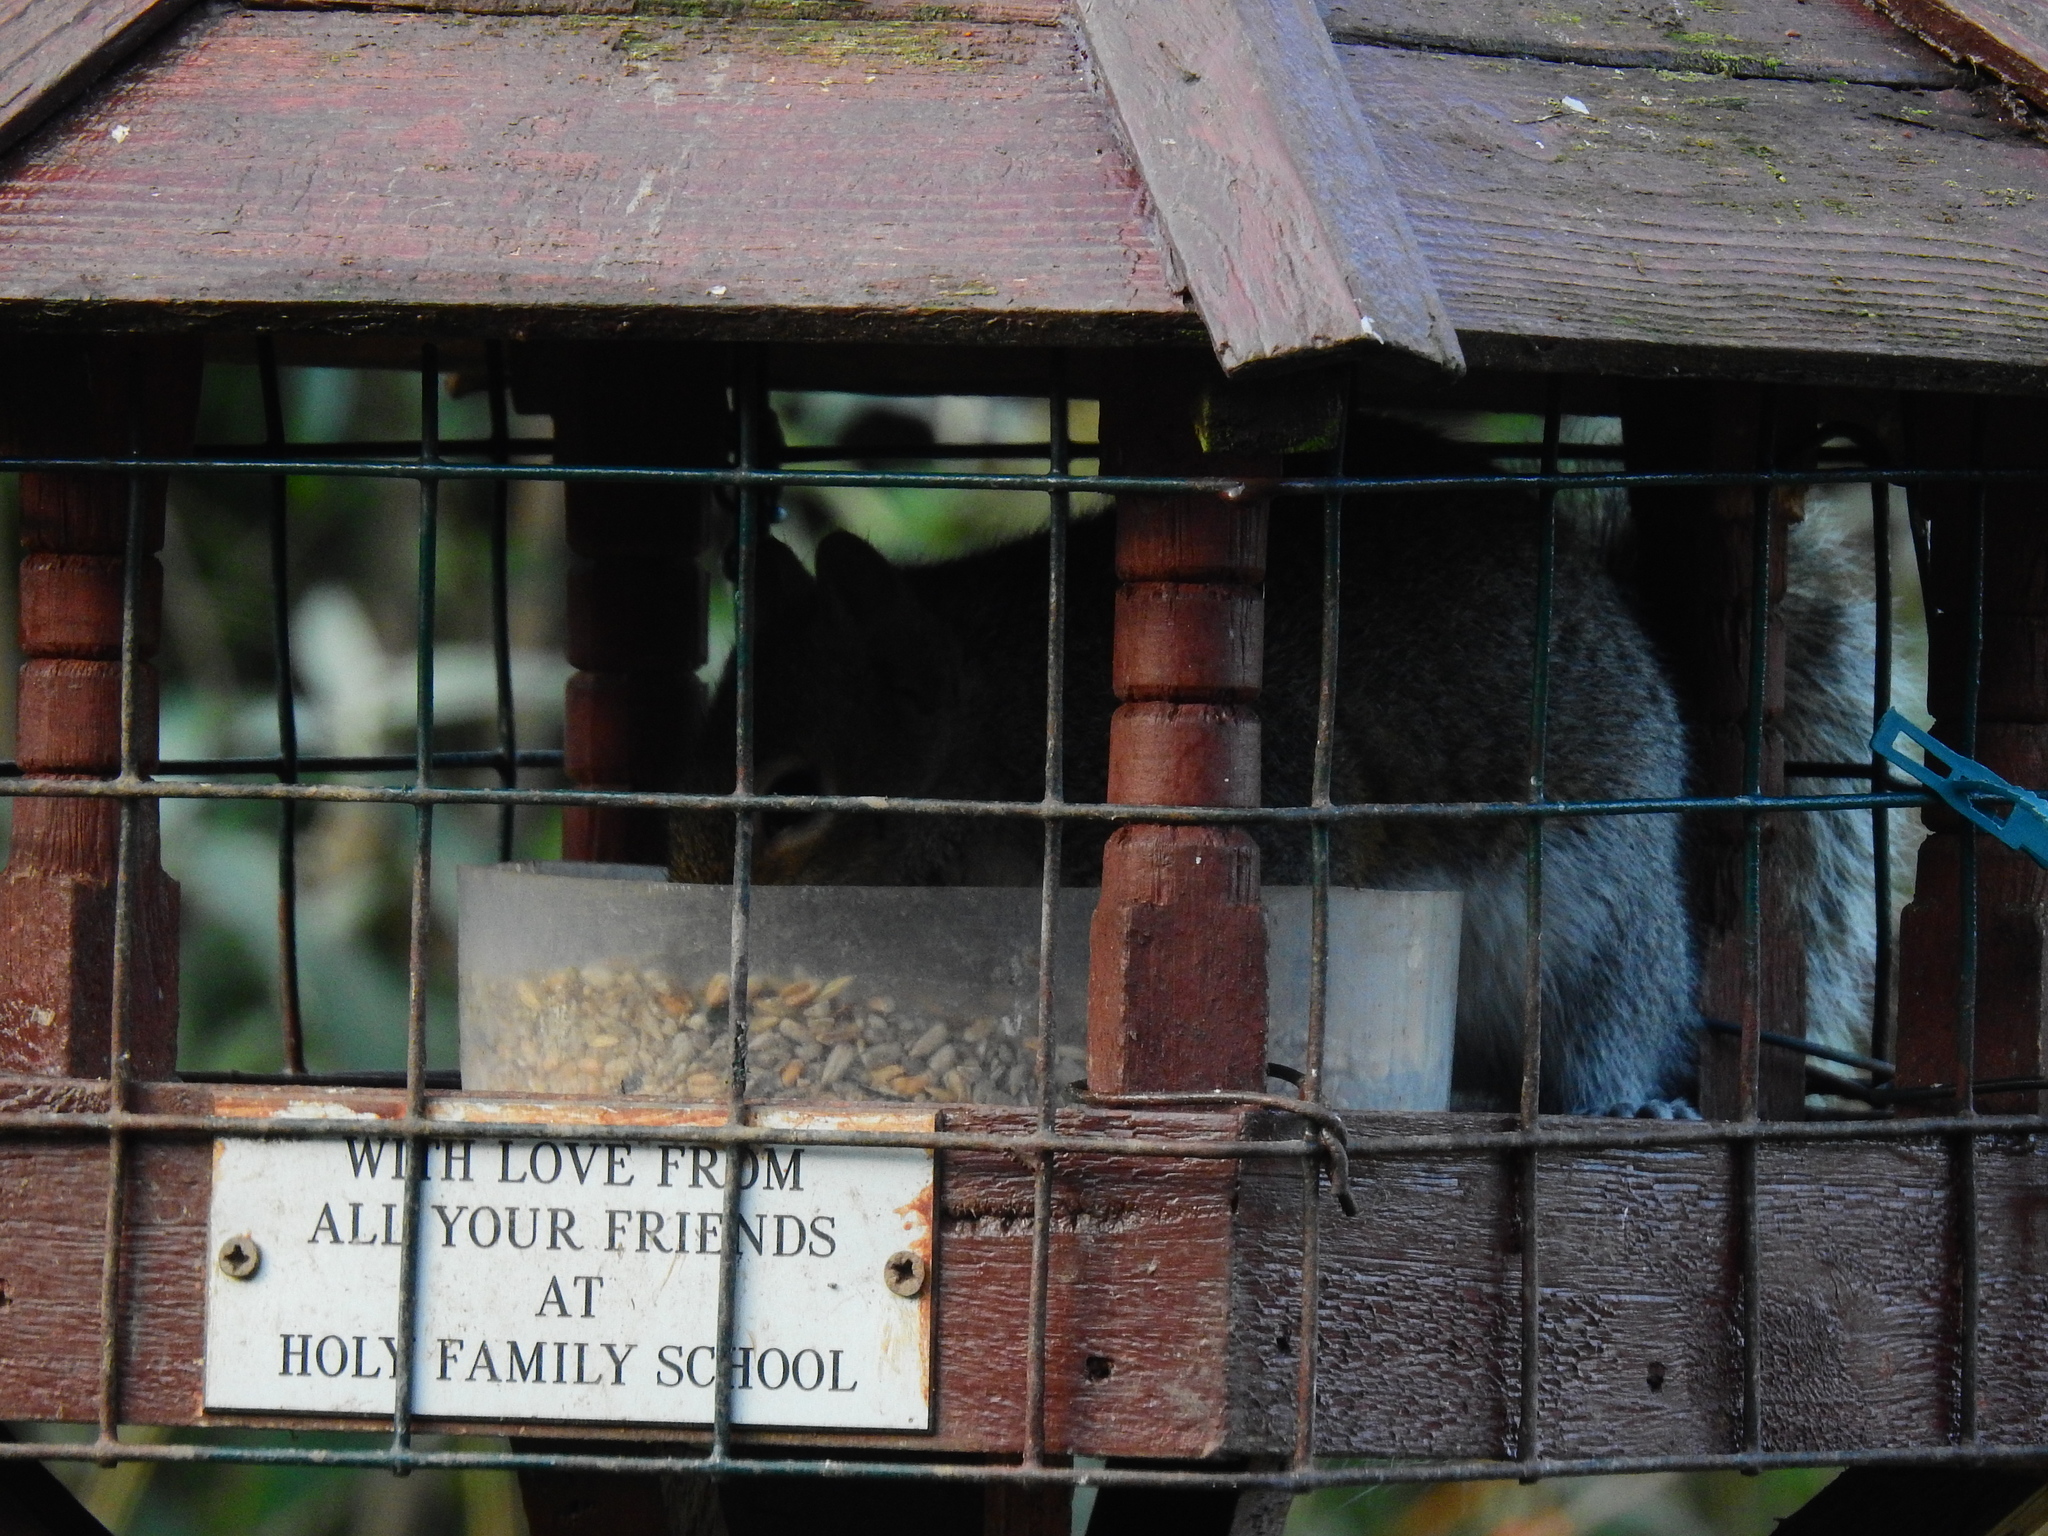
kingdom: Animalia
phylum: Chordata
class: Mammalia
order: Rodentia
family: Sciuridae
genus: Sciurus
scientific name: Sciurus carolinensis
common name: Eastern gray squirrel
